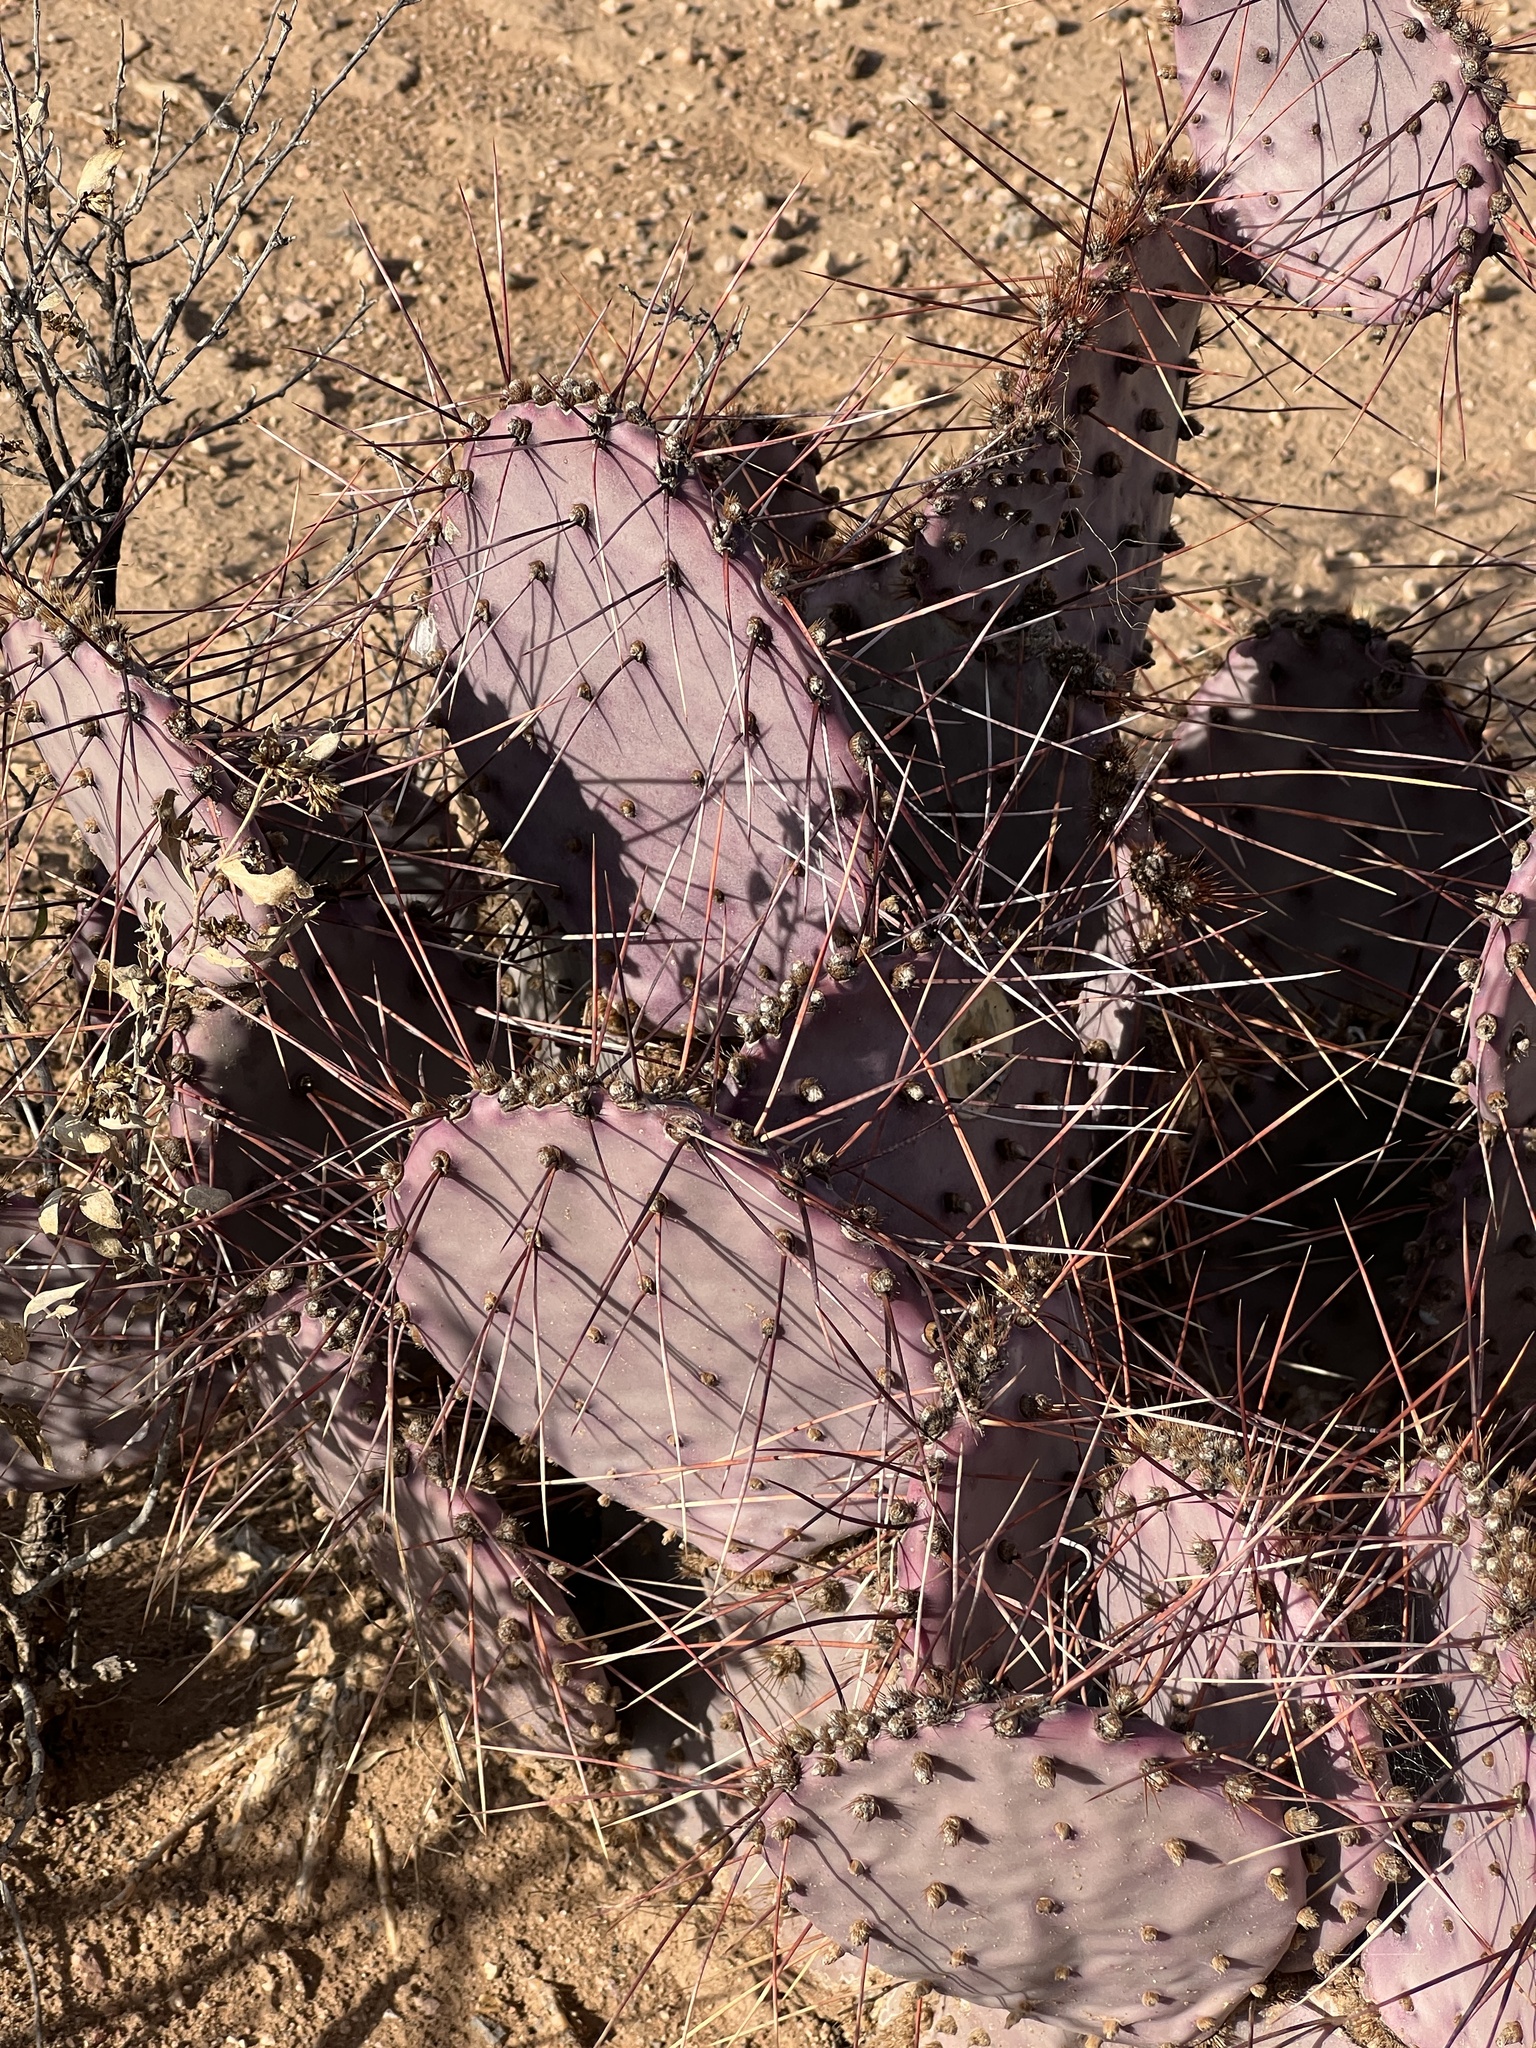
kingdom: Plantae
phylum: Tracheophyta
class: Magnoliopsida
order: Caryophyllales
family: Cactaceae
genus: Opuntia
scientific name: Opuntia macrocentra
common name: Purple prickly-pear
